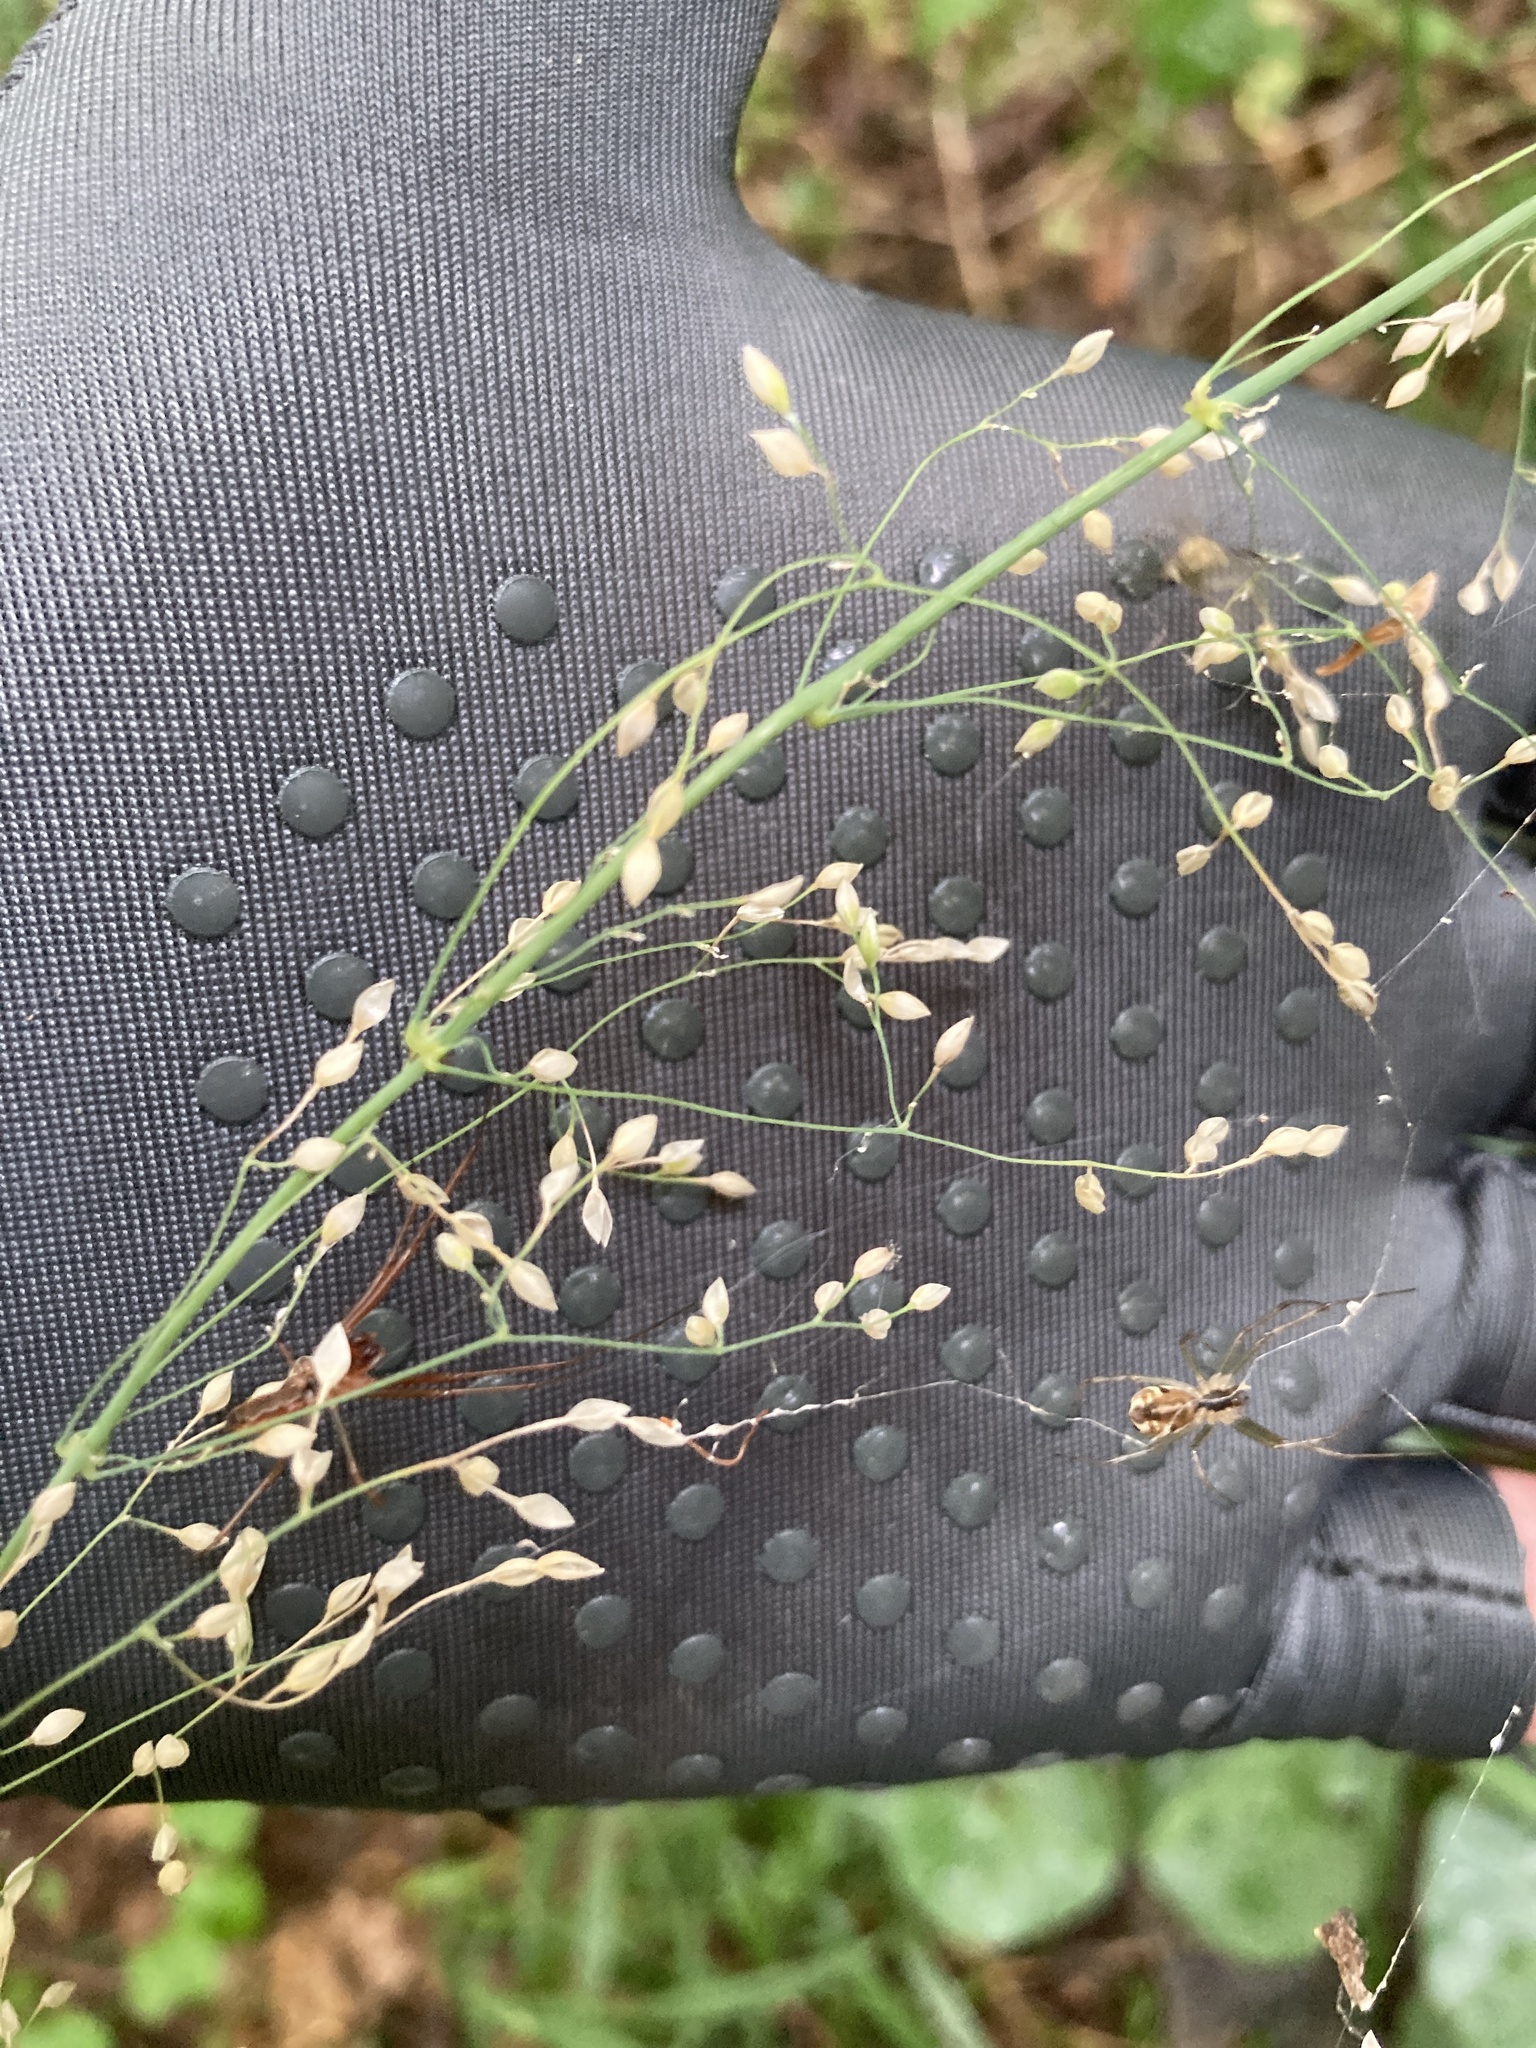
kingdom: Plantae
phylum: Tracheophyta
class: Liliopsida
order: Poales
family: Poaceae
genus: Milium
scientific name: Milium effusum
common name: Wood millet
